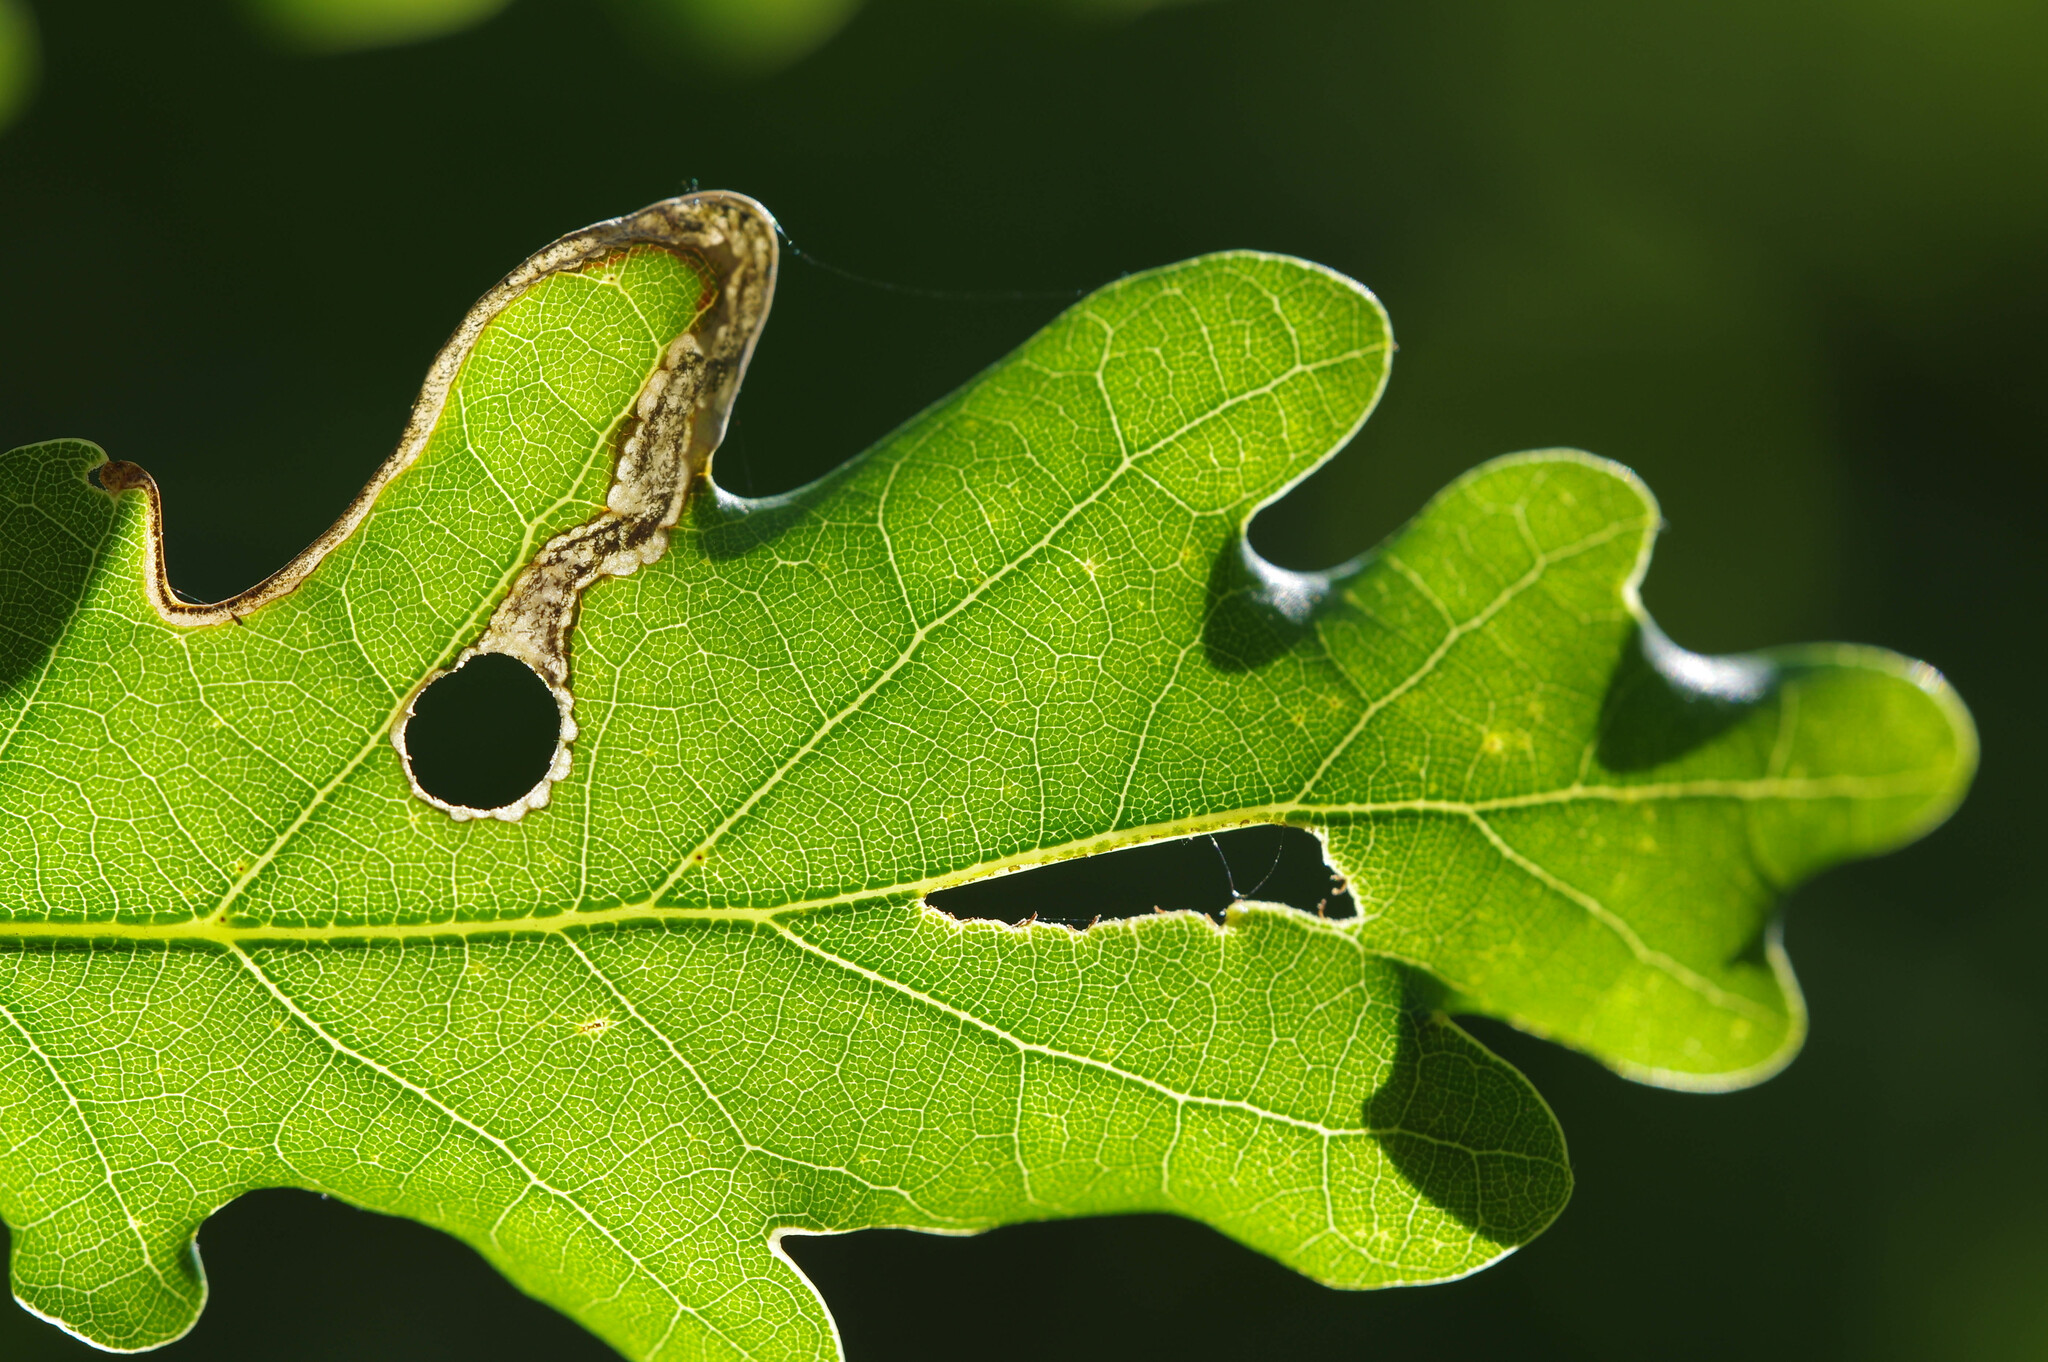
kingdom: Animalia
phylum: Arthropoda
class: Insecta
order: Coleoptera
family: Curculionidae
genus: Orchestes
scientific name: Orchestes hortorum
